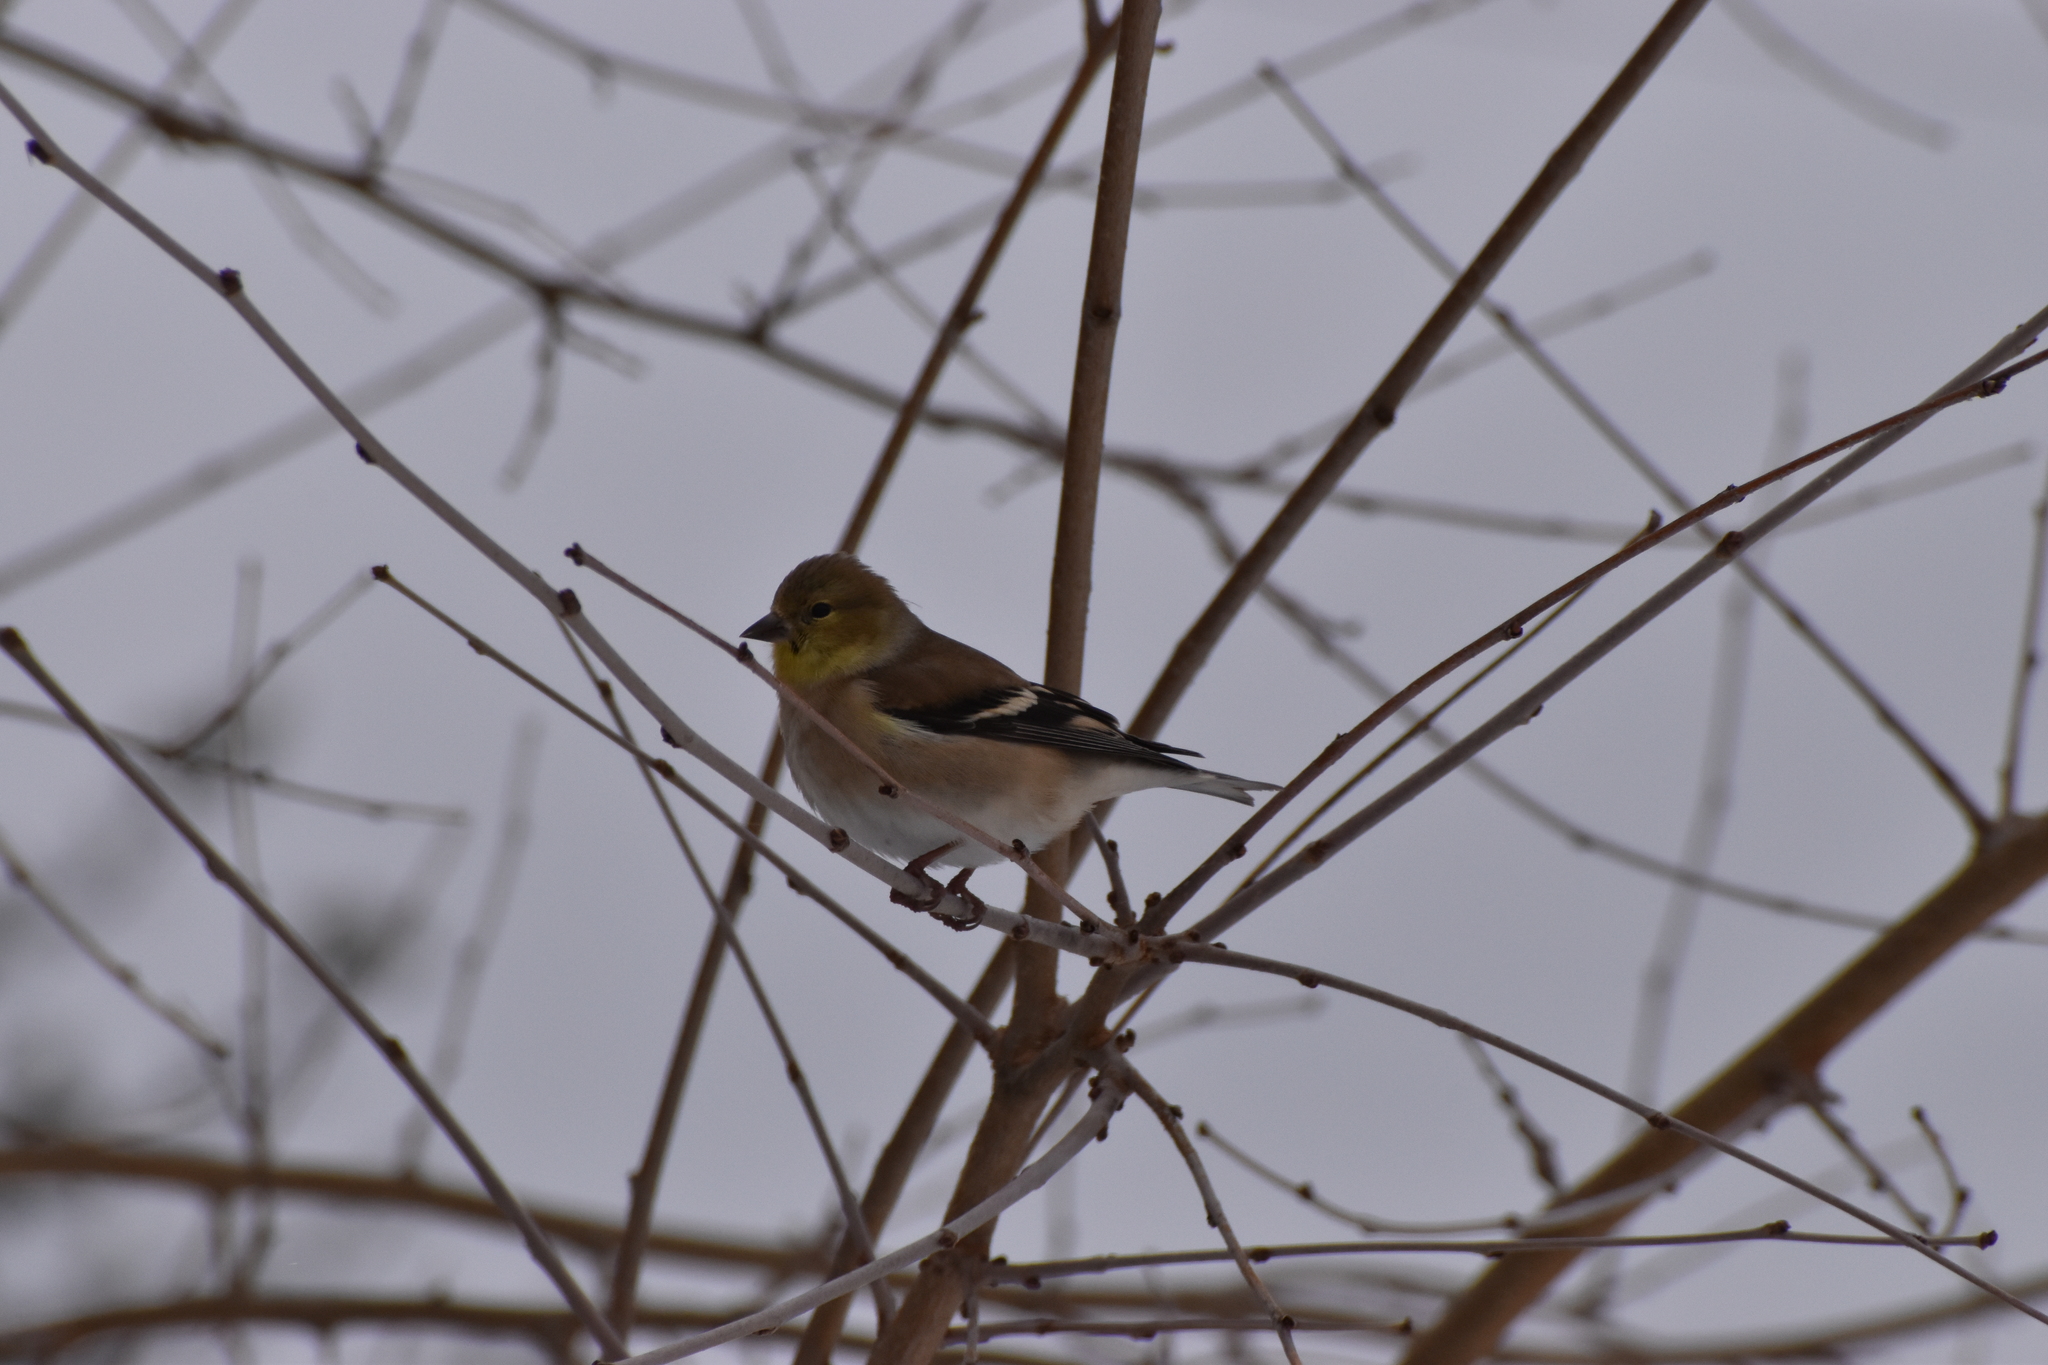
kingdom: Animalia
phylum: Chordata
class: Aves
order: Passeriformes
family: Fringillidae
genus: Spinus
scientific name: Spinus tristis
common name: American goldfinch
